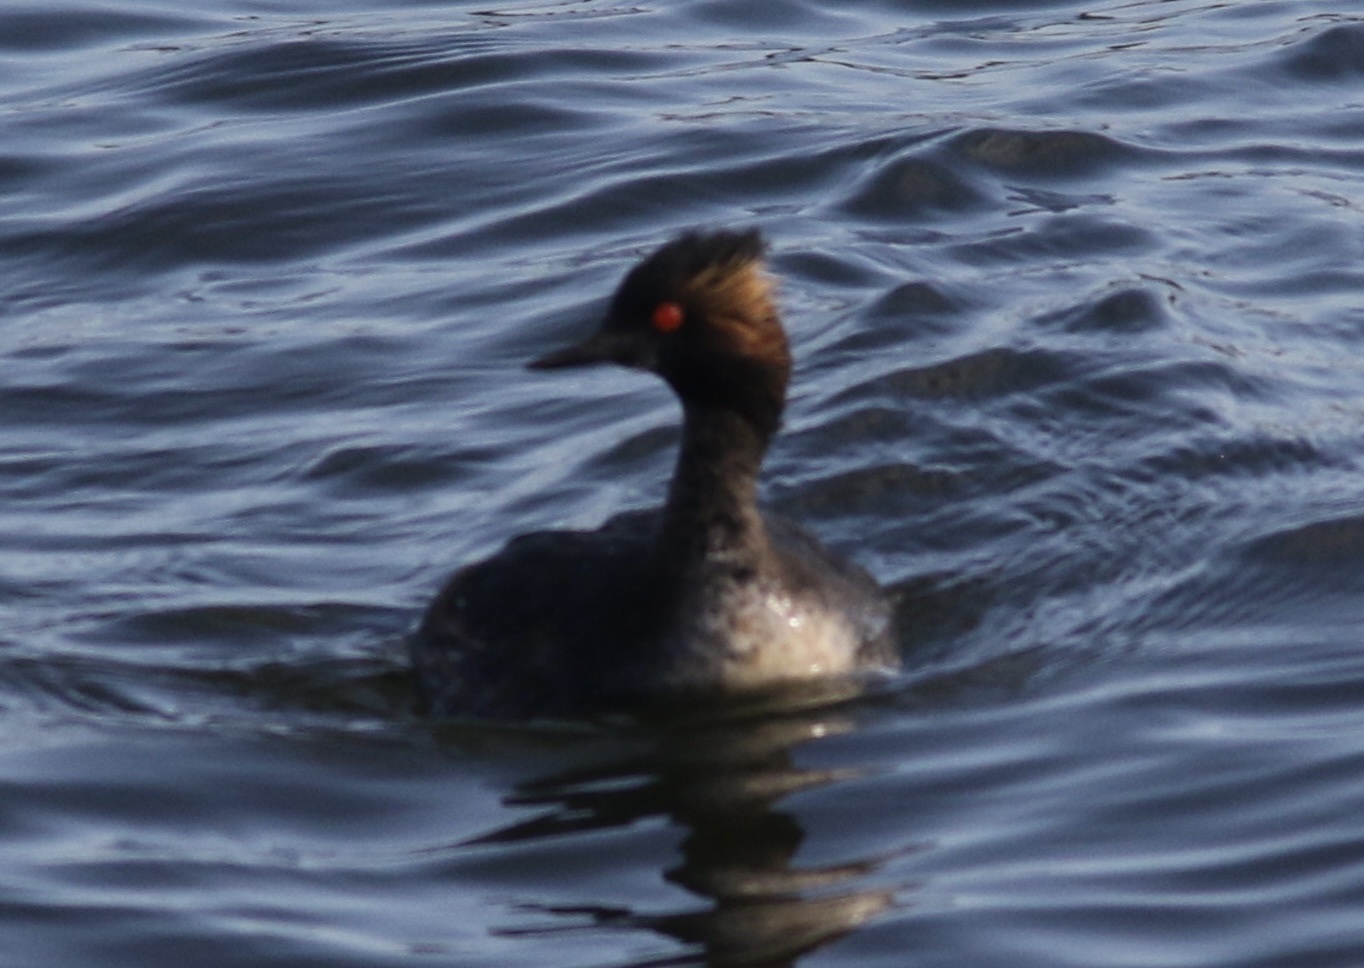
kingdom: Animalia
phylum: Chordata
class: Aves
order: Podicipediformes
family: Podicipedidae
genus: Podiceps
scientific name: Podiceps nigricollis
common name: Black-necked grebe
